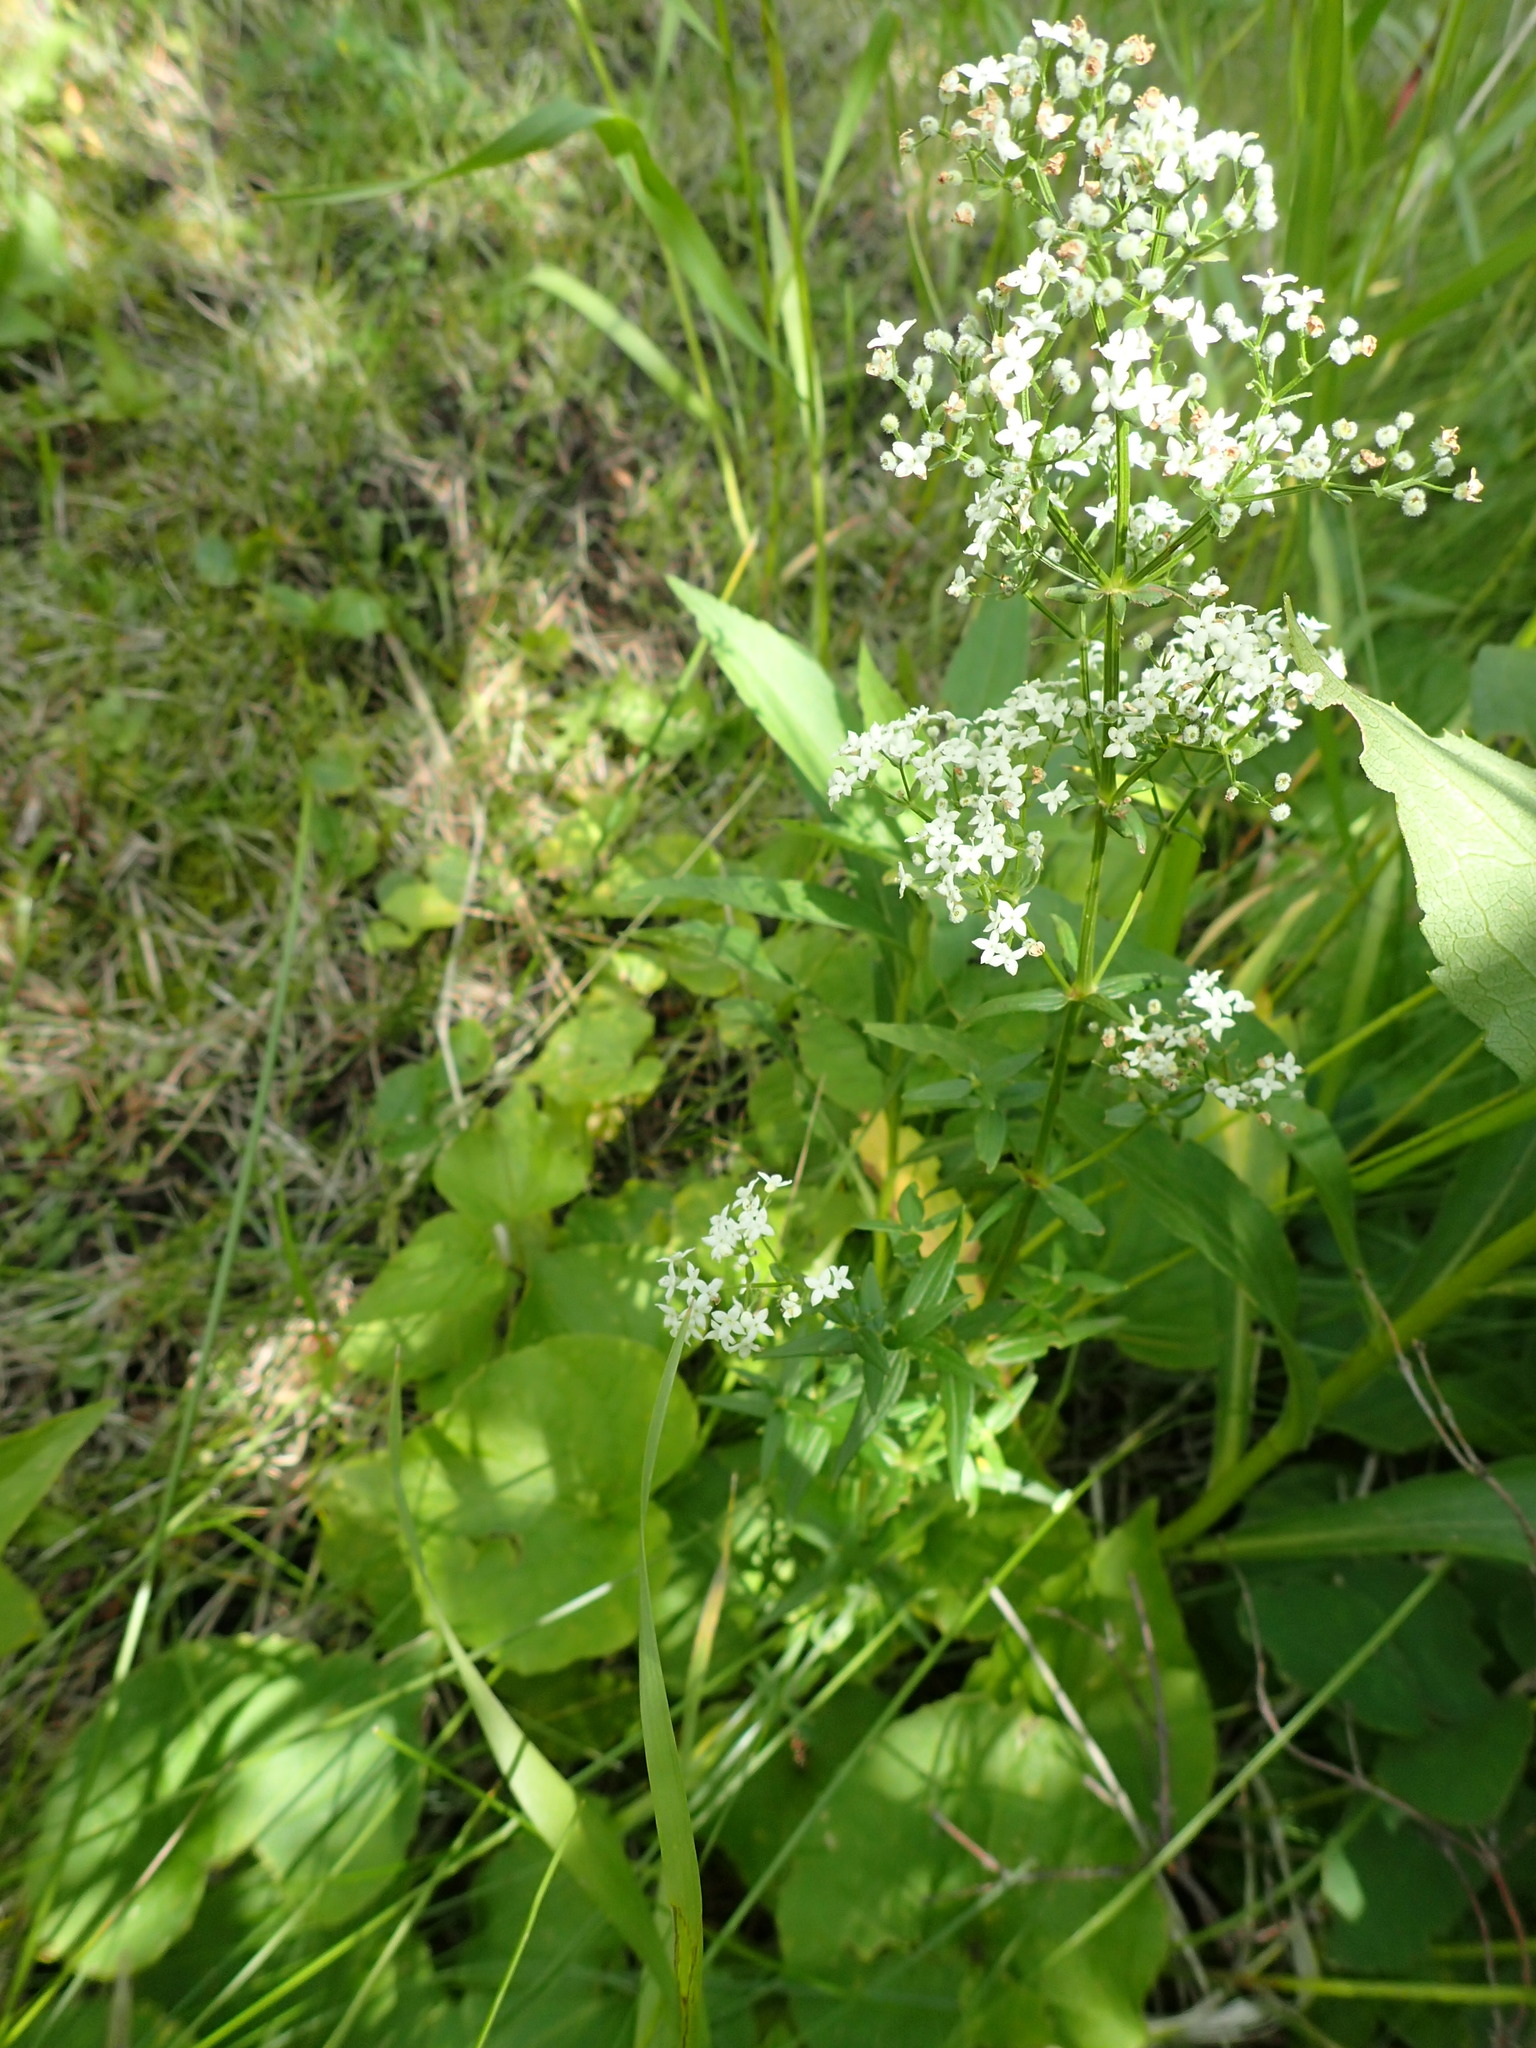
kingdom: Plantae
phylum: Tracheophyta
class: Magnoliopsida
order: Gentianales
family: Rubiaceae
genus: Galium
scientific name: Galium boreale
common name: Northern bedstraw
